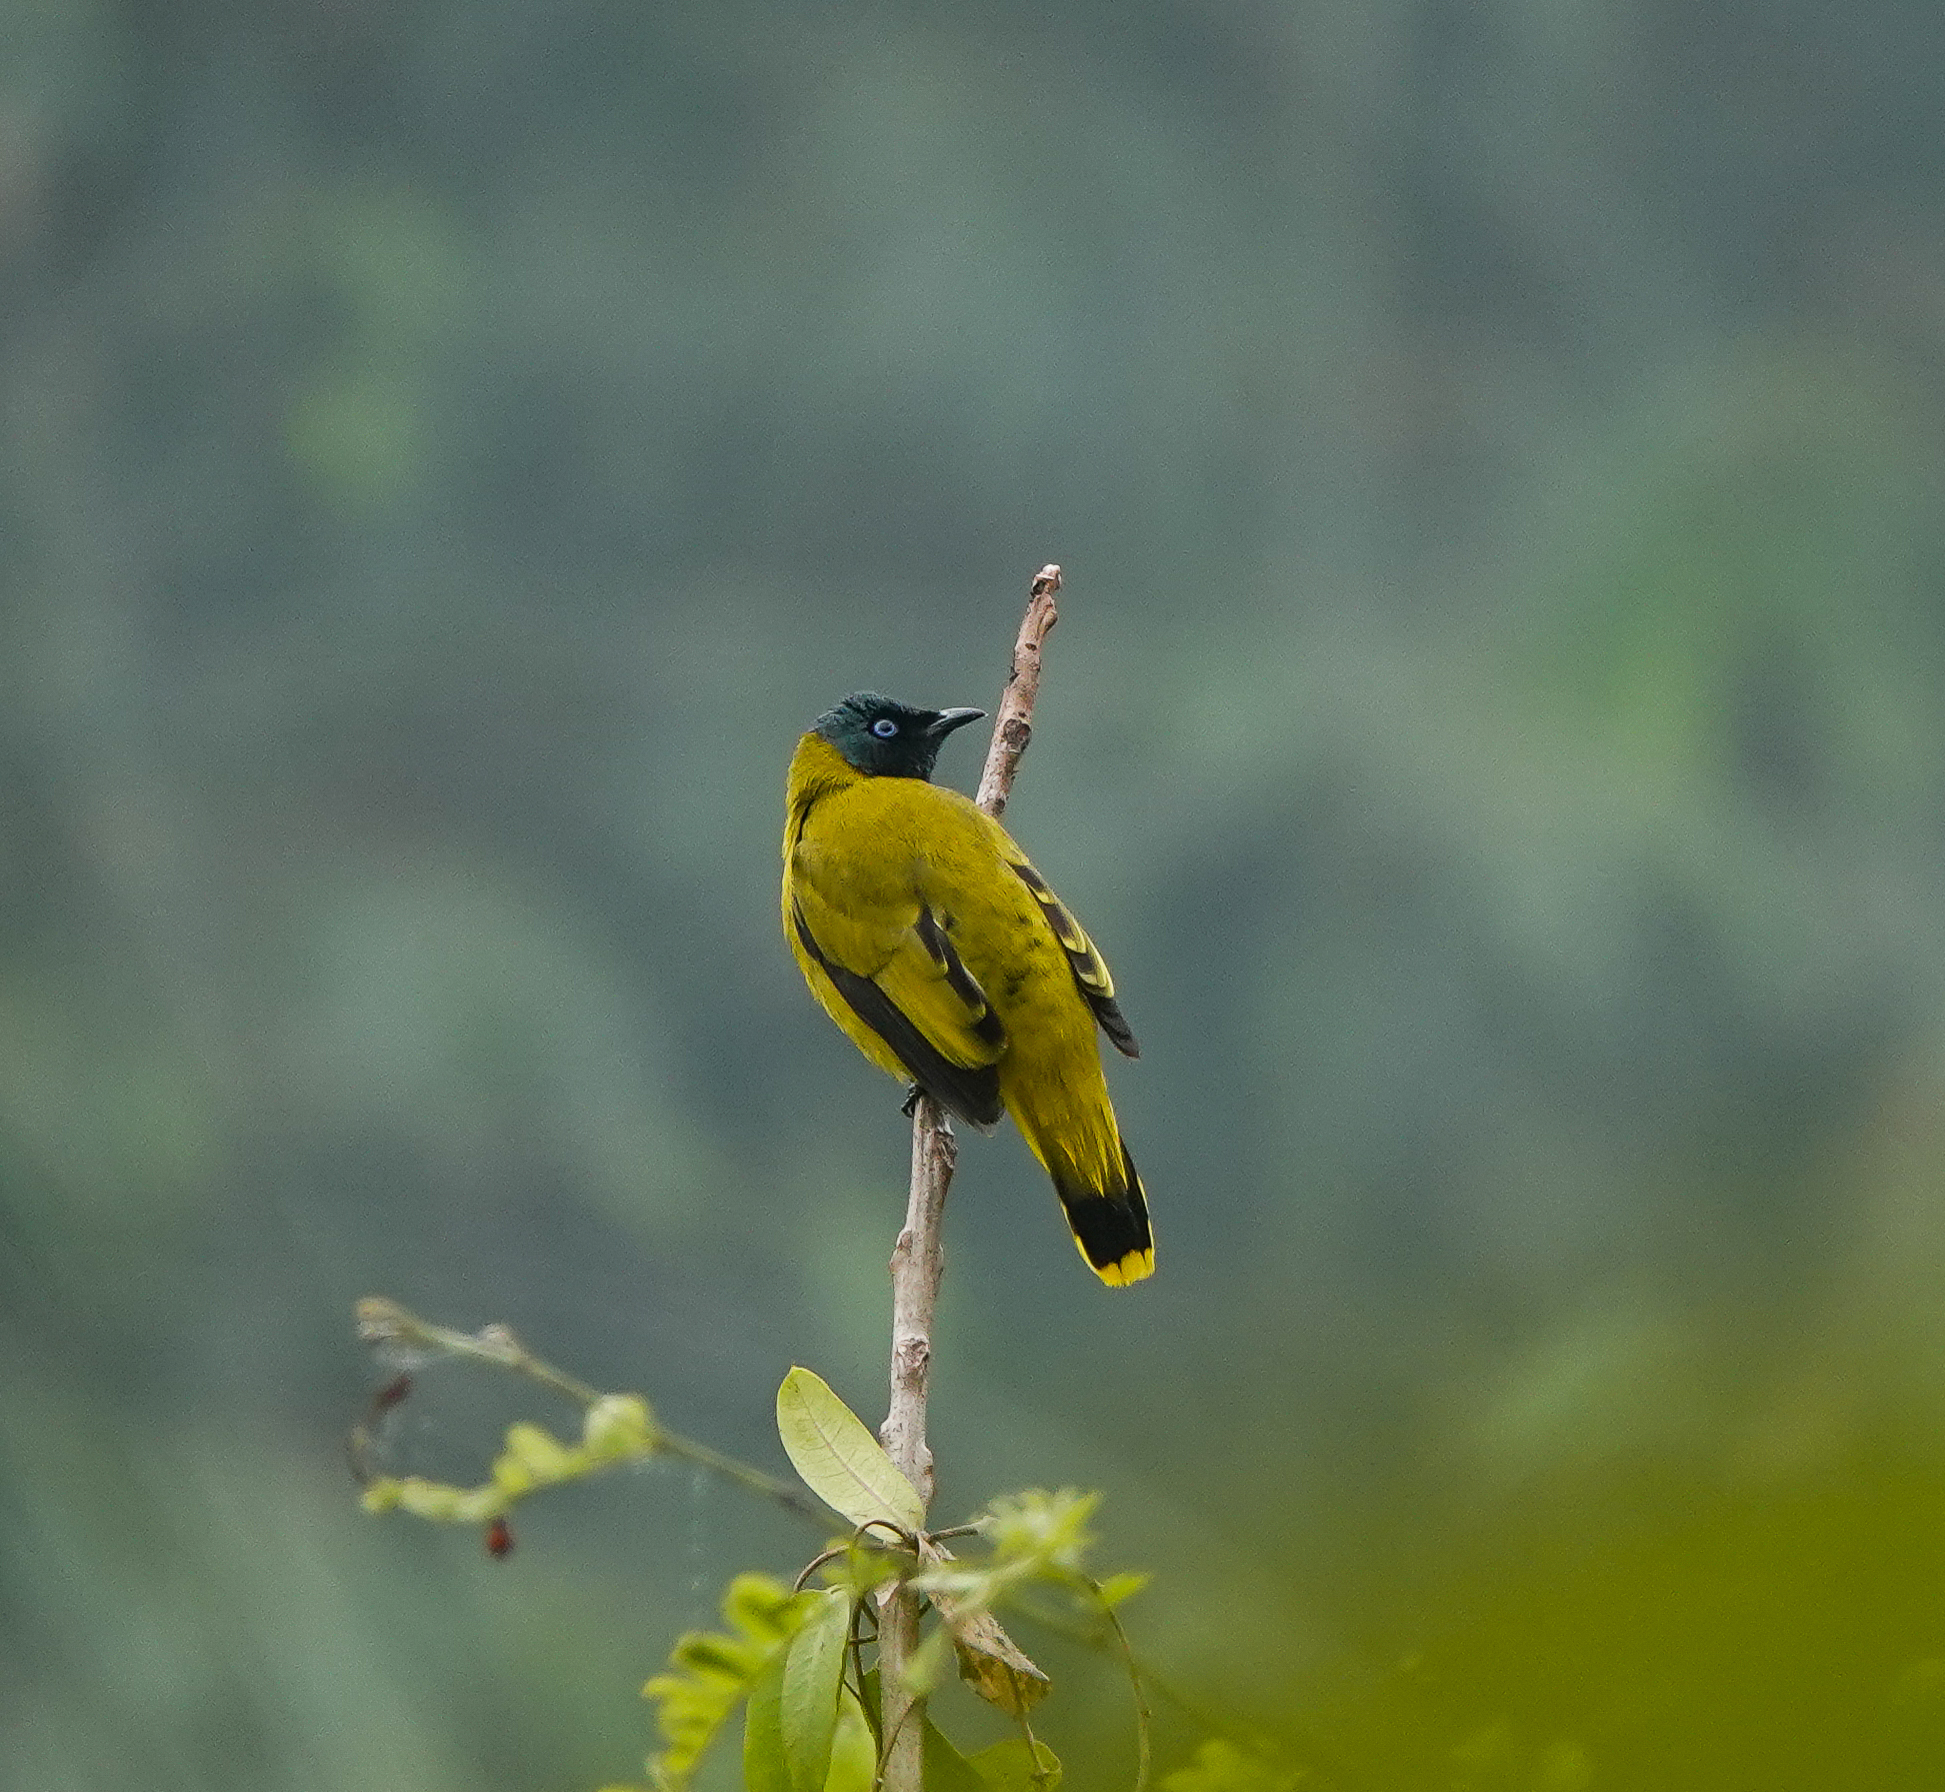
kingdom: Animalia
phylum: Chordata
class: Aves
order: Passeriformes
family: Pycnonotidae
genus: Microtarsus
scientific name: Microtarsus
